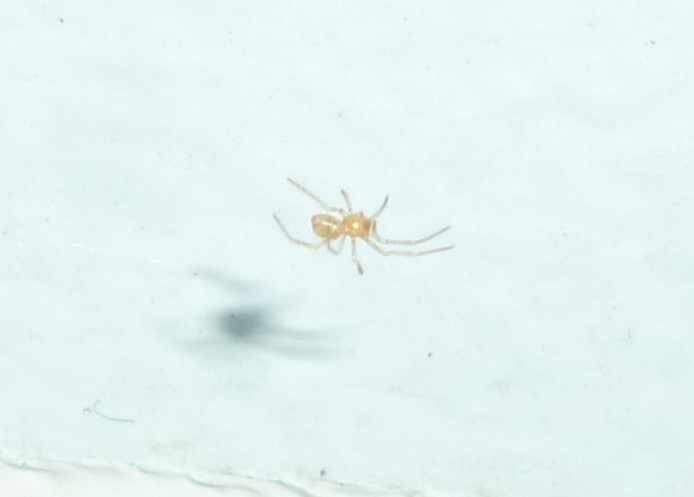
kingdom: Animalia
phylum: Arthropoda
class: Arachnida
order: Araneae
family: Theridiidae
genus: Steatoda
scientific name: Steatoda triangulosa
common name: Triangulate bud spider
